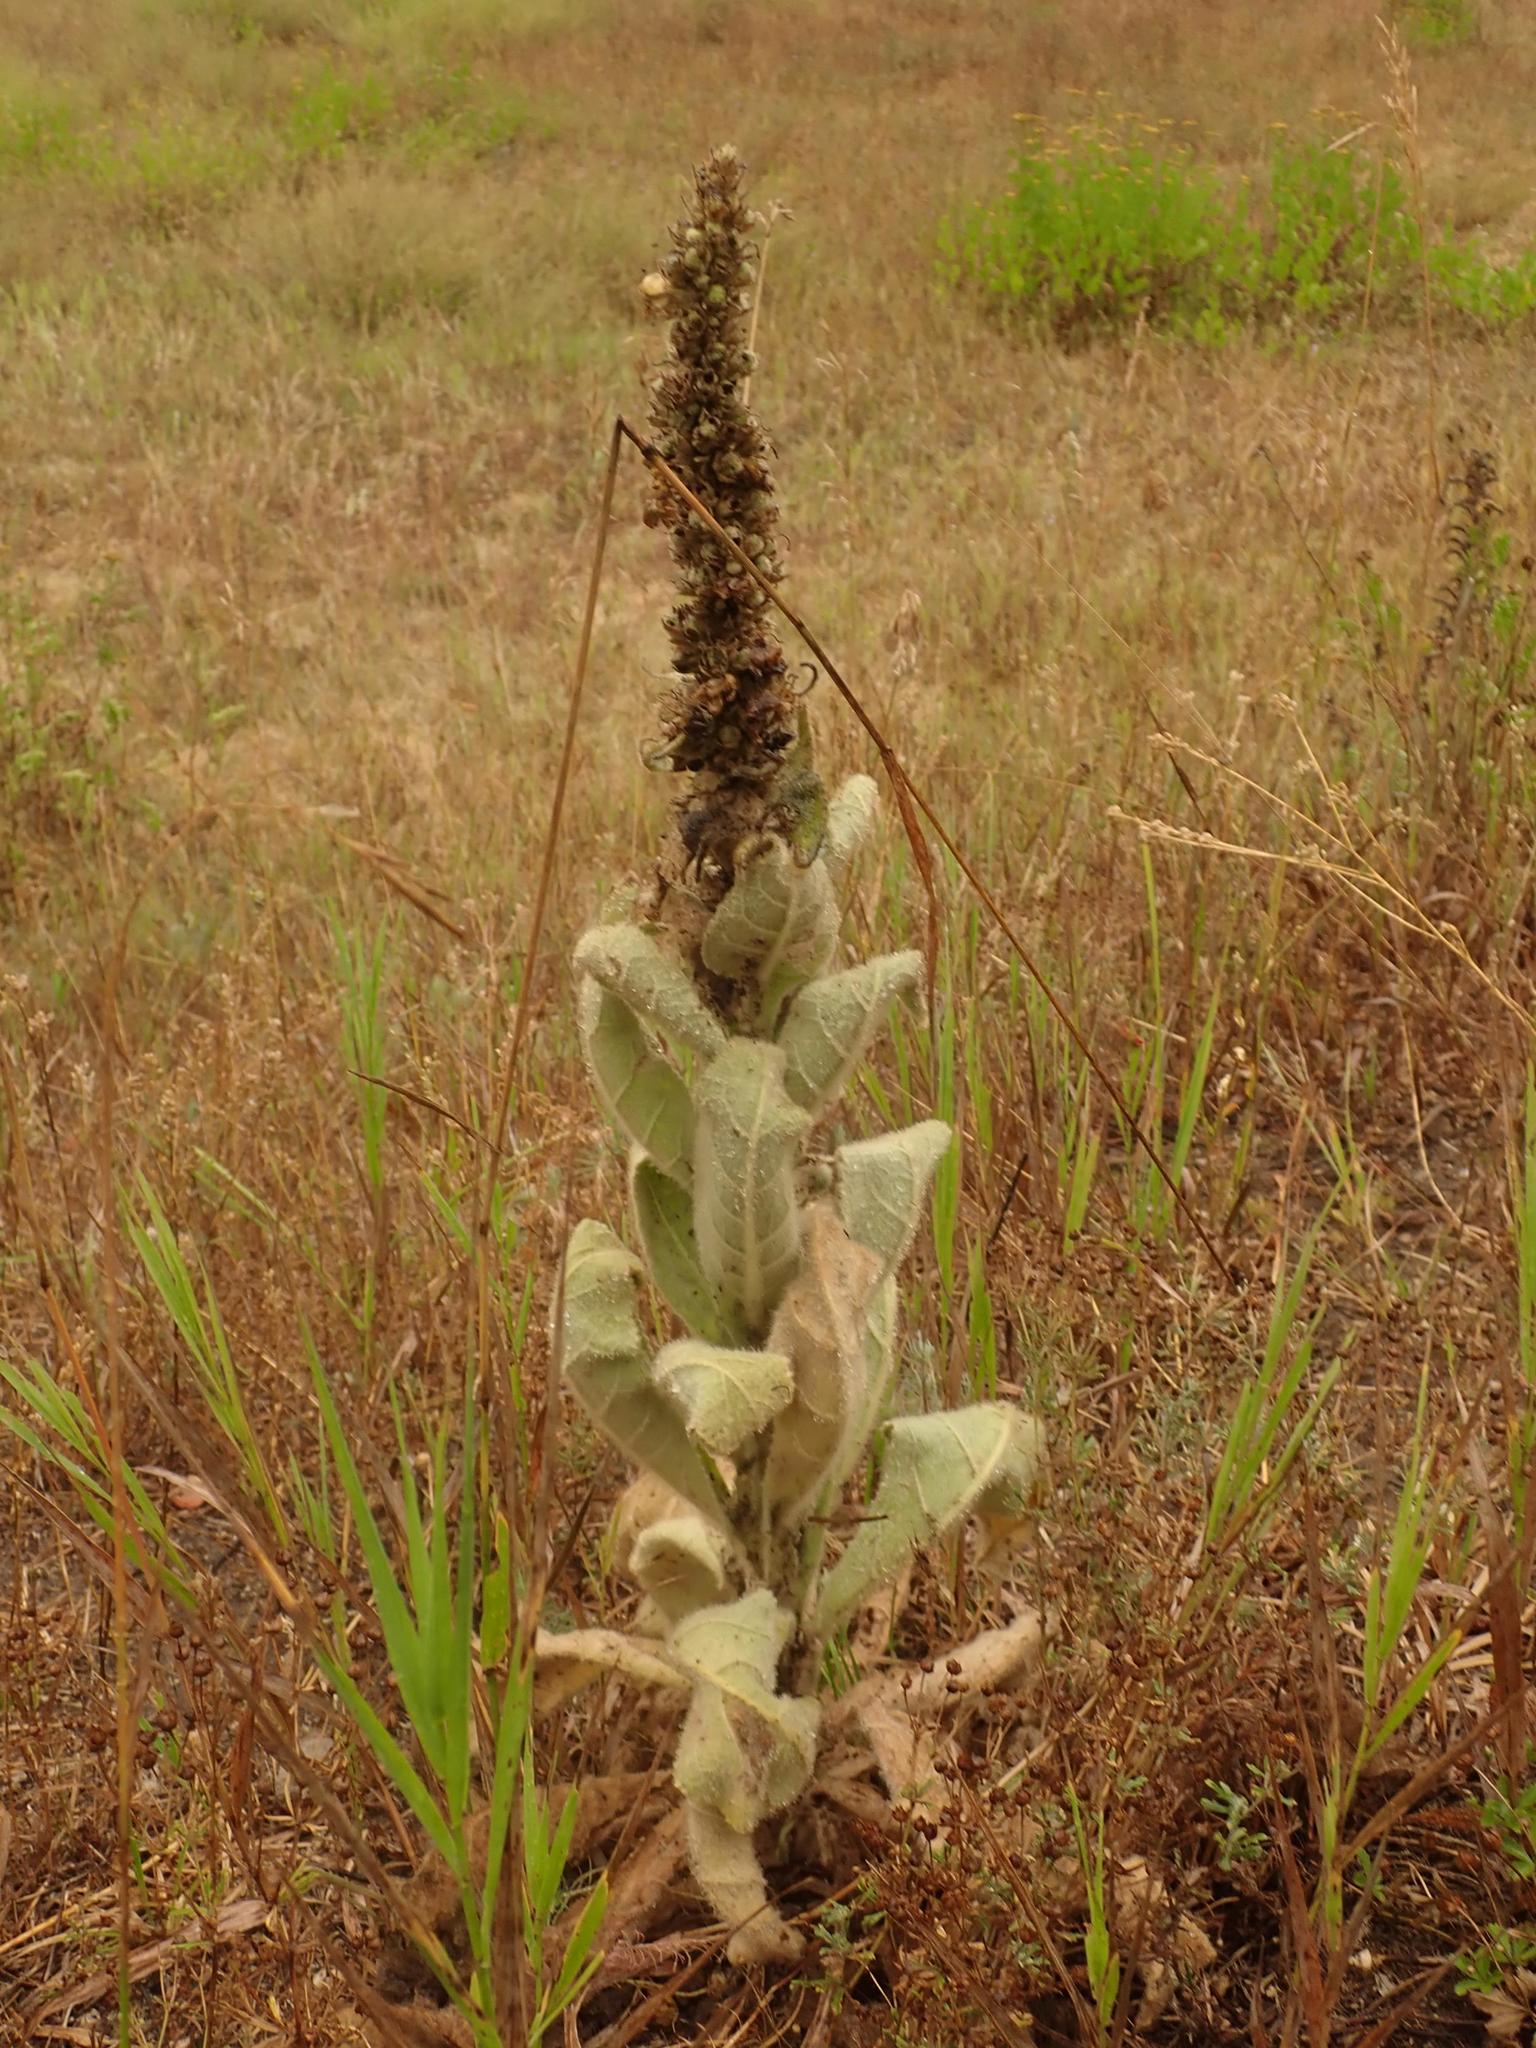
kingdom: Plantae
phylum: Tracheophyta
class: Magnoliopsida
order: Lamiales
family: Scrophulariaceae
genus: Verbascum
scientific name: Verbascum thapsus
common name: Common mullein
